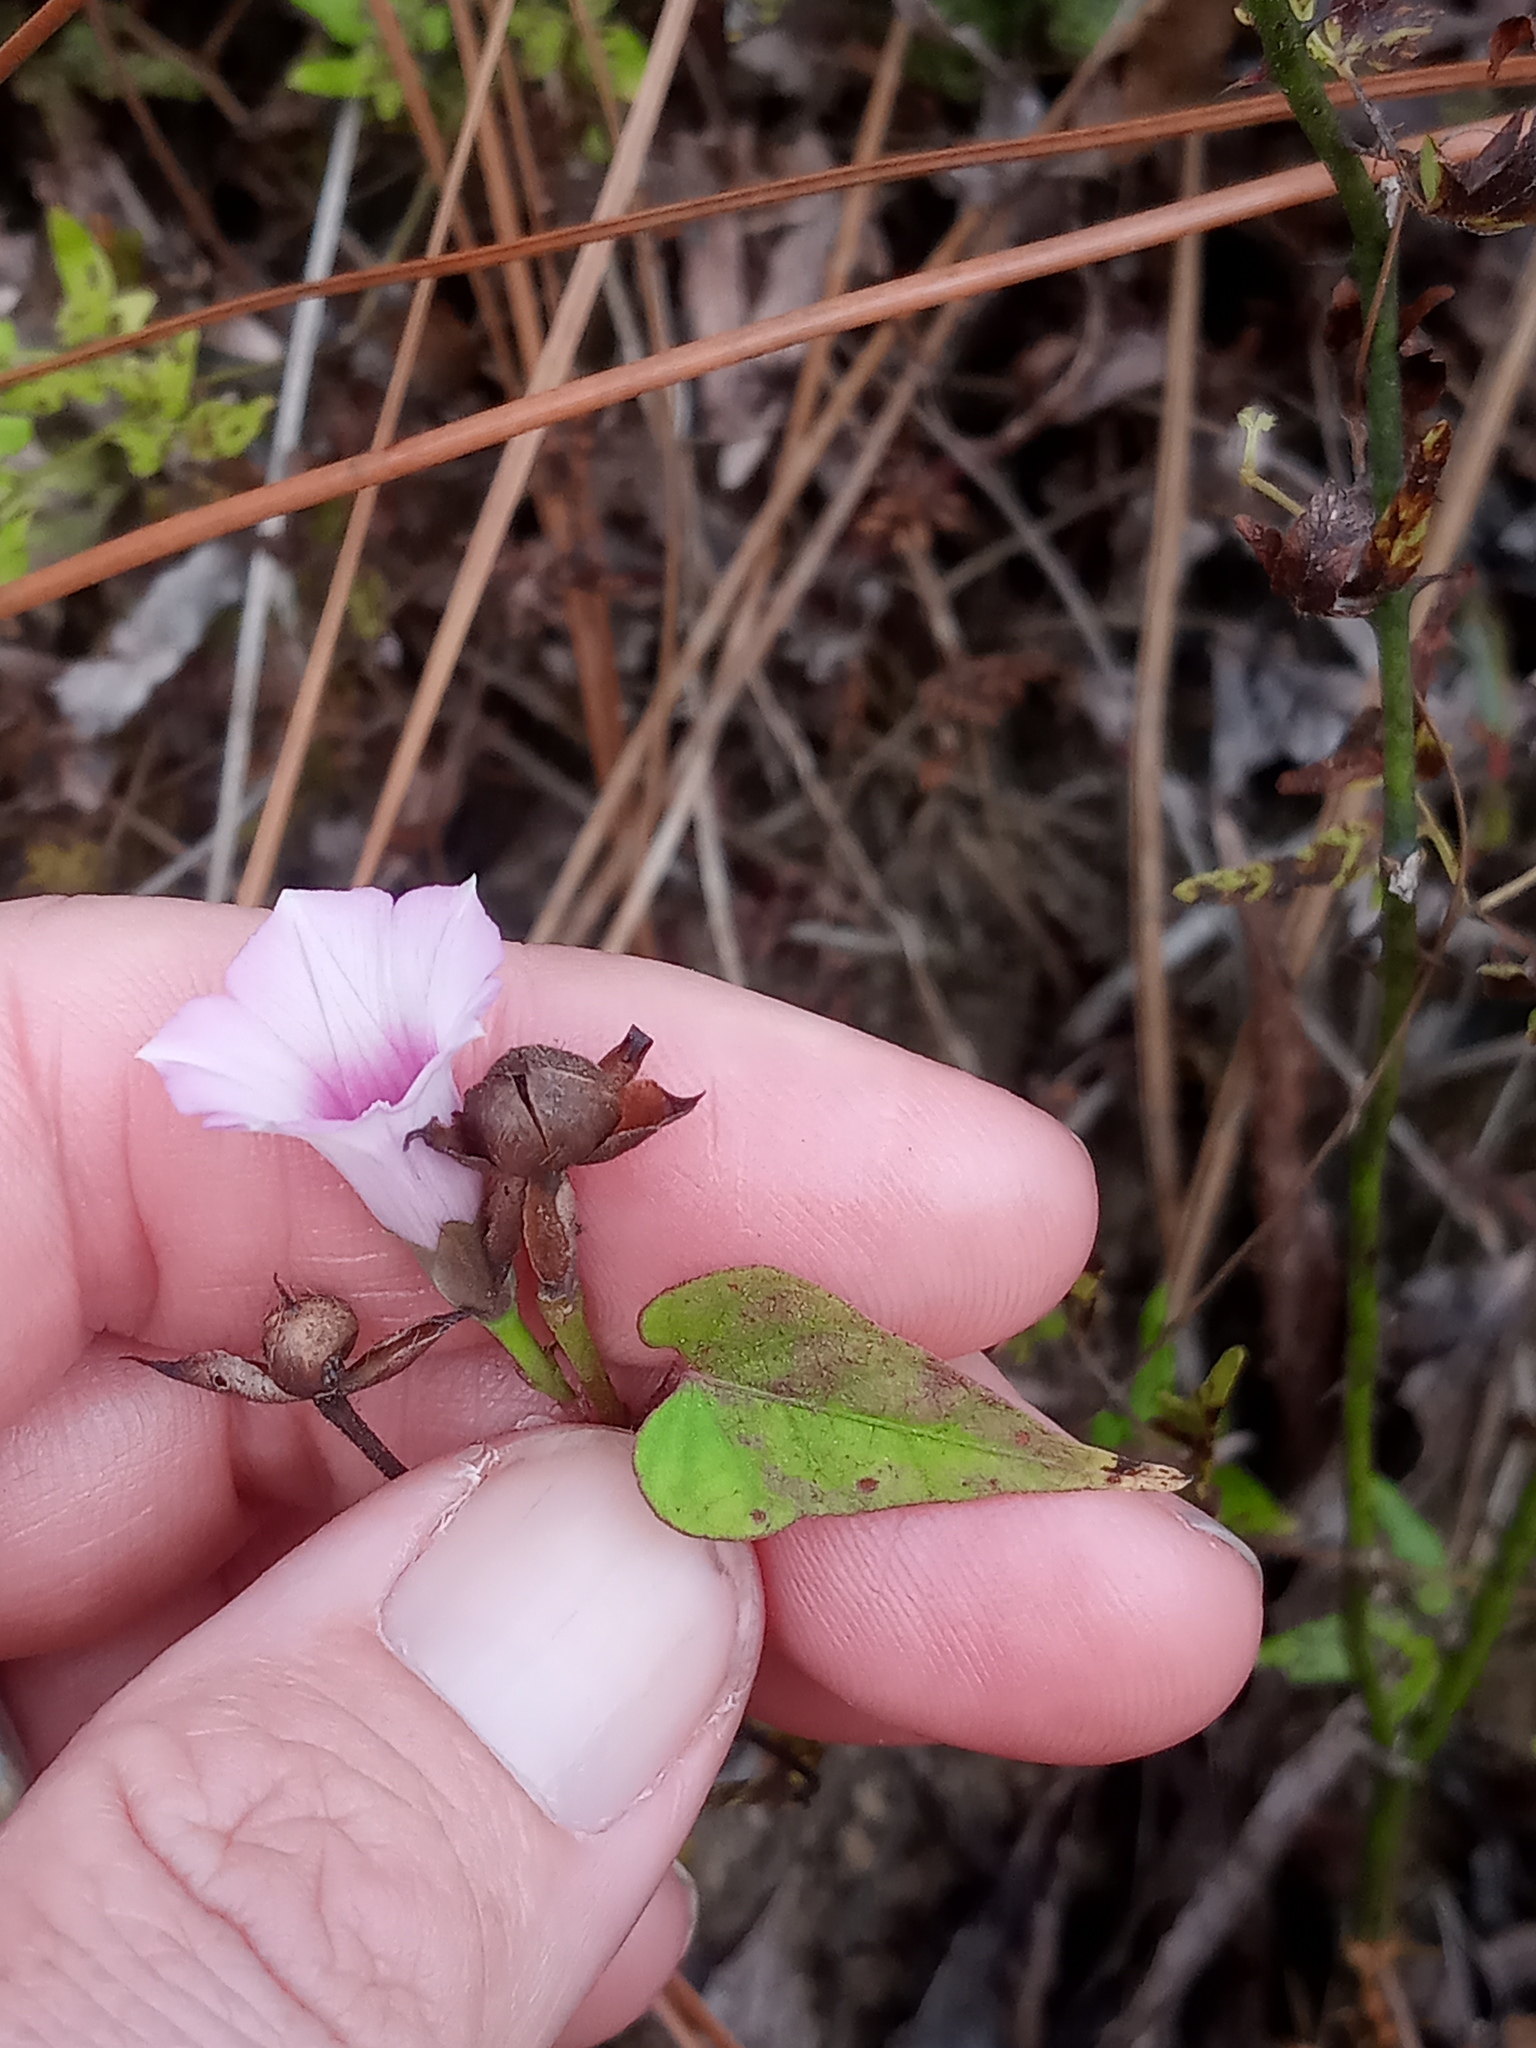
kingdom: Plantae
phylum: Tracheophyta
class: Magnoliopsida
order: Solanales
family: Convolvulaceae
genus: Ipomoea
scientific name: Ipomoea cordatotriloba
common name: Cotton morning glory
